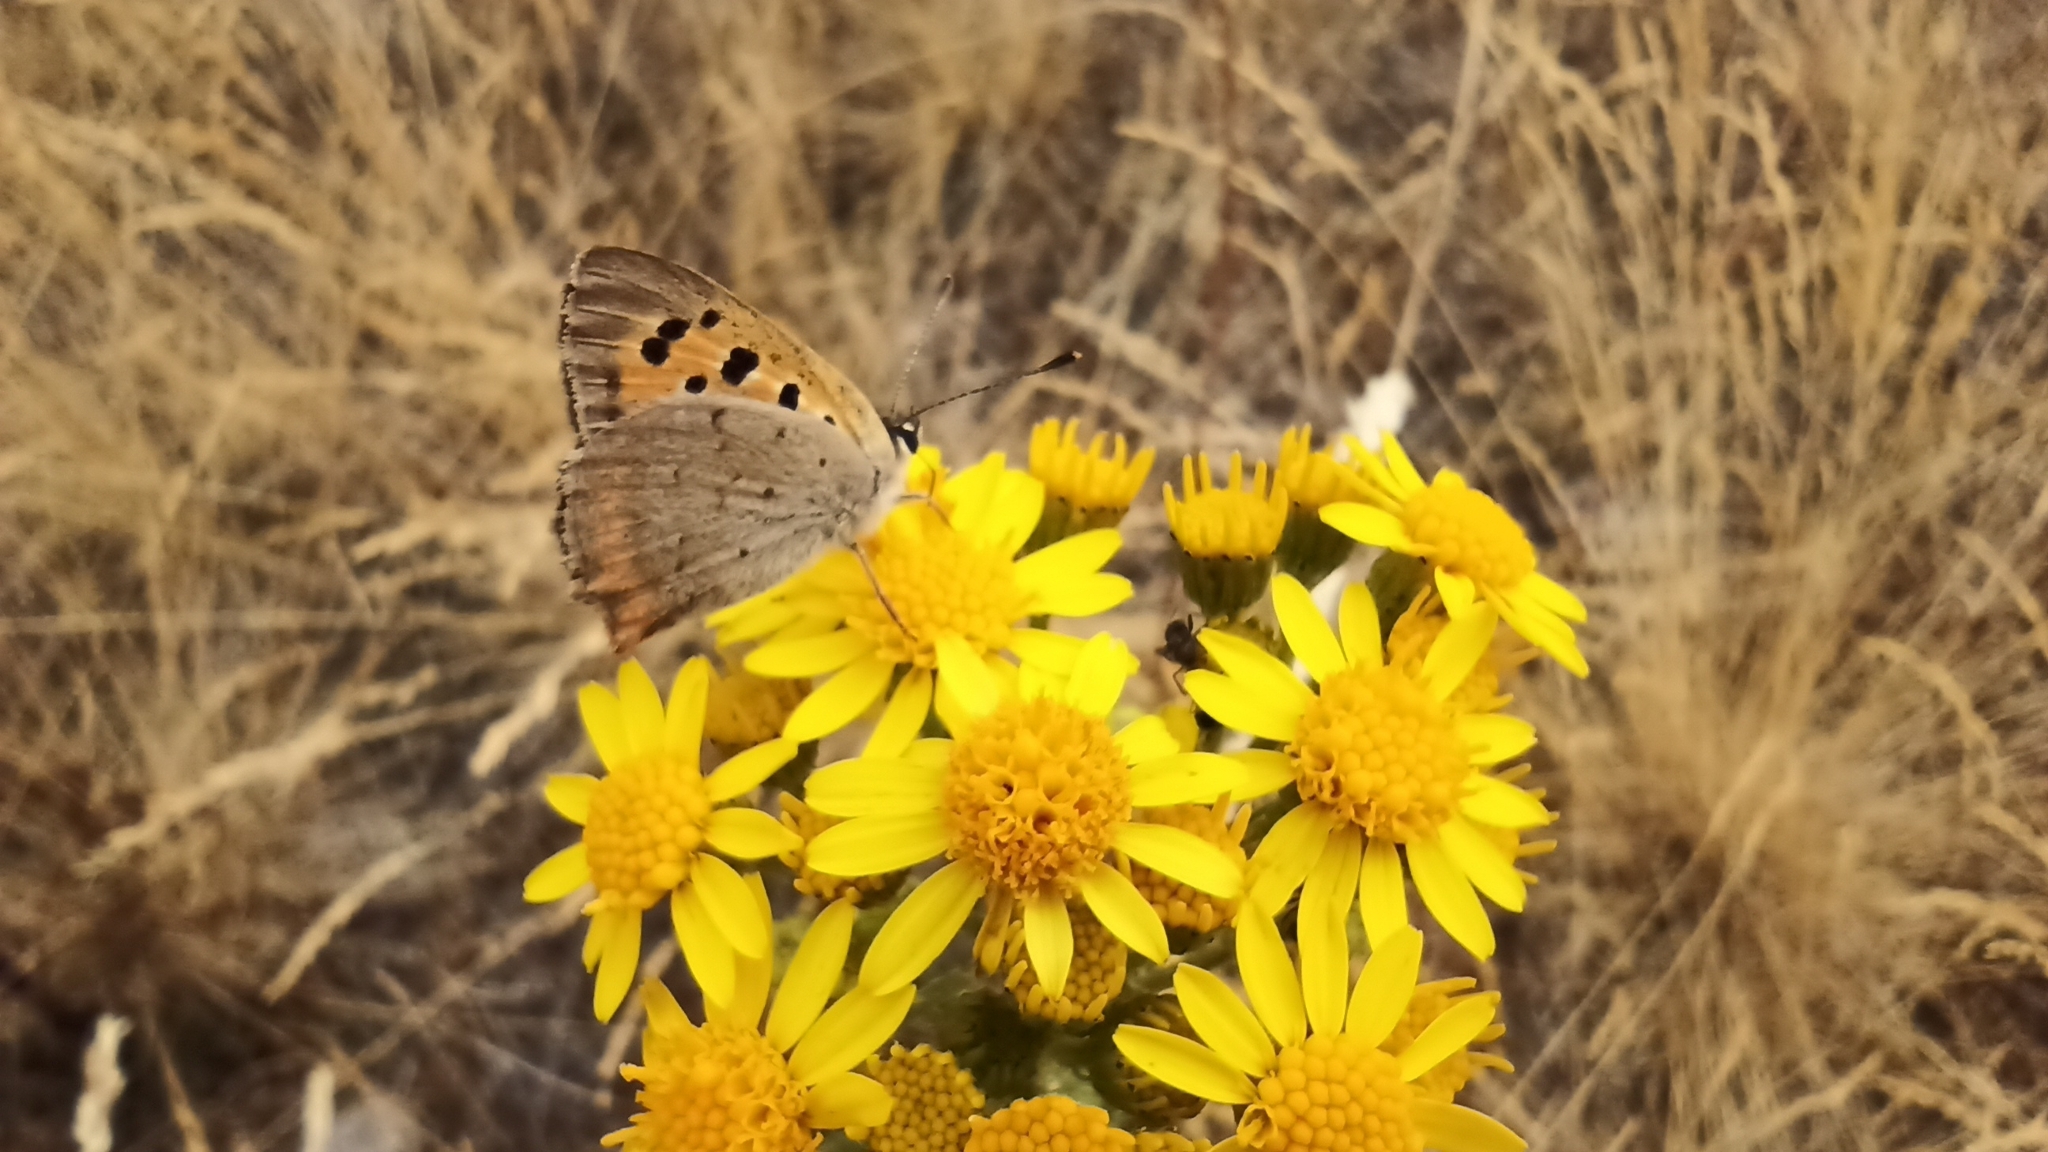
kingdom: Animalia
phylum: Arthropoda
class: Insecta
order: Lepidoptera
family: Lycaenidae
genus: Lycaena
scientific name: Lycaena phlaeas
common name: Small copper
